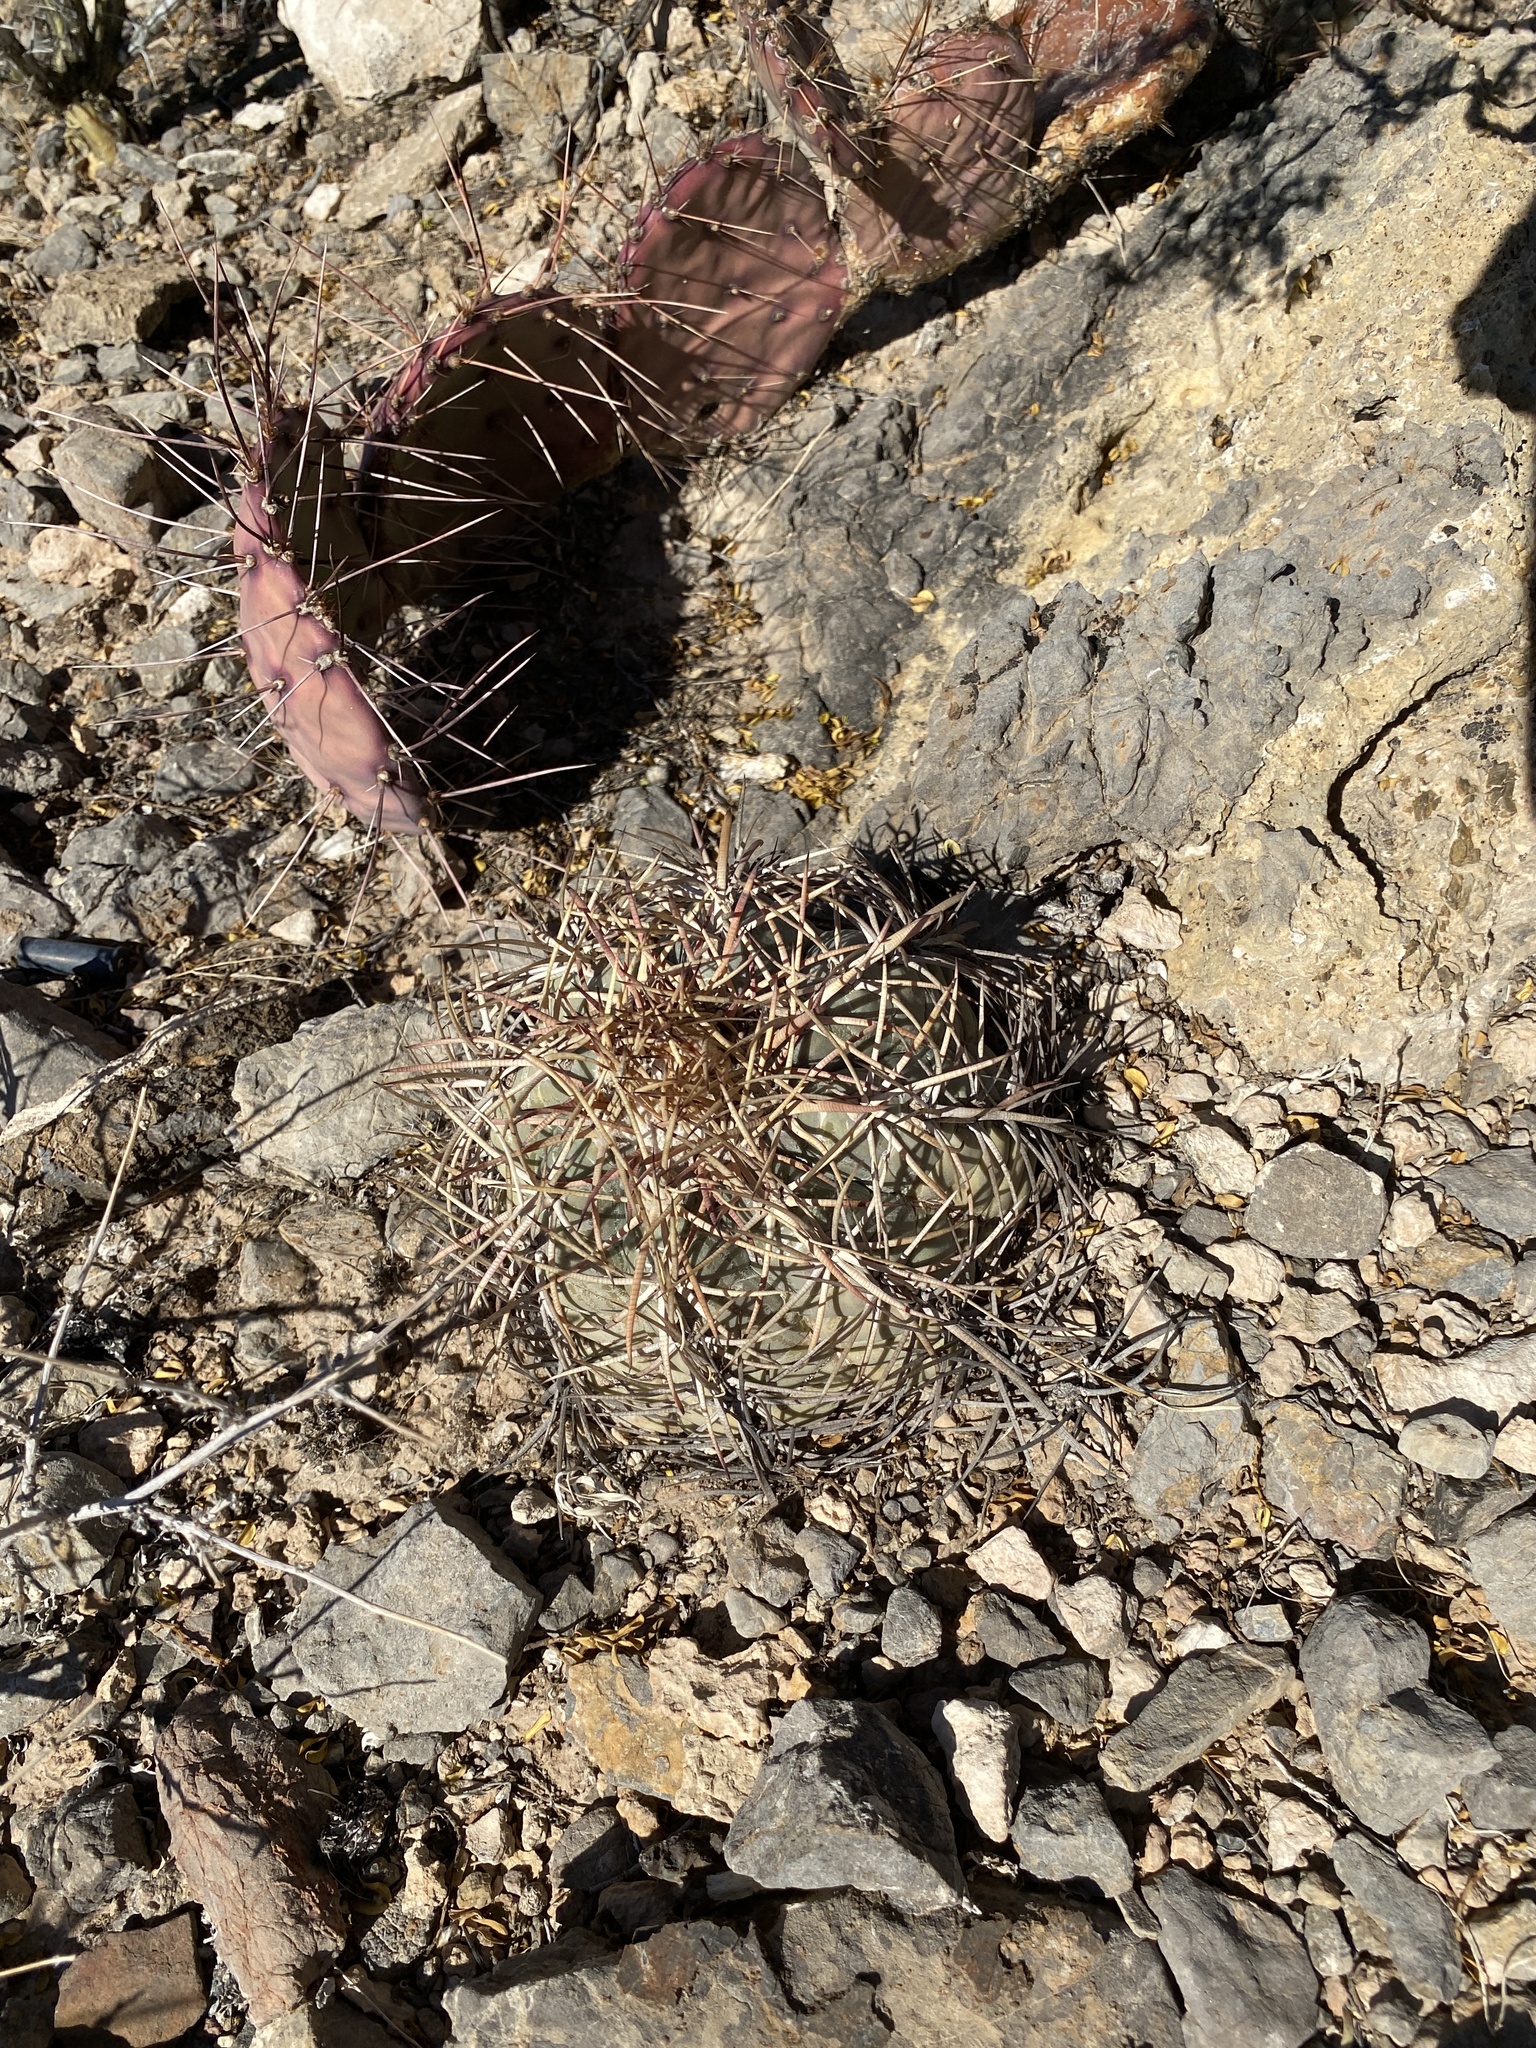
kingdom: Plantae
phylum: Tracheophyta
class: Magnoliopsida
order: Caryophyllales
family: Cactaceae
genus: Echinocactus
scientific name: Echinocactus horizonthalonius
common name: Devilshead
